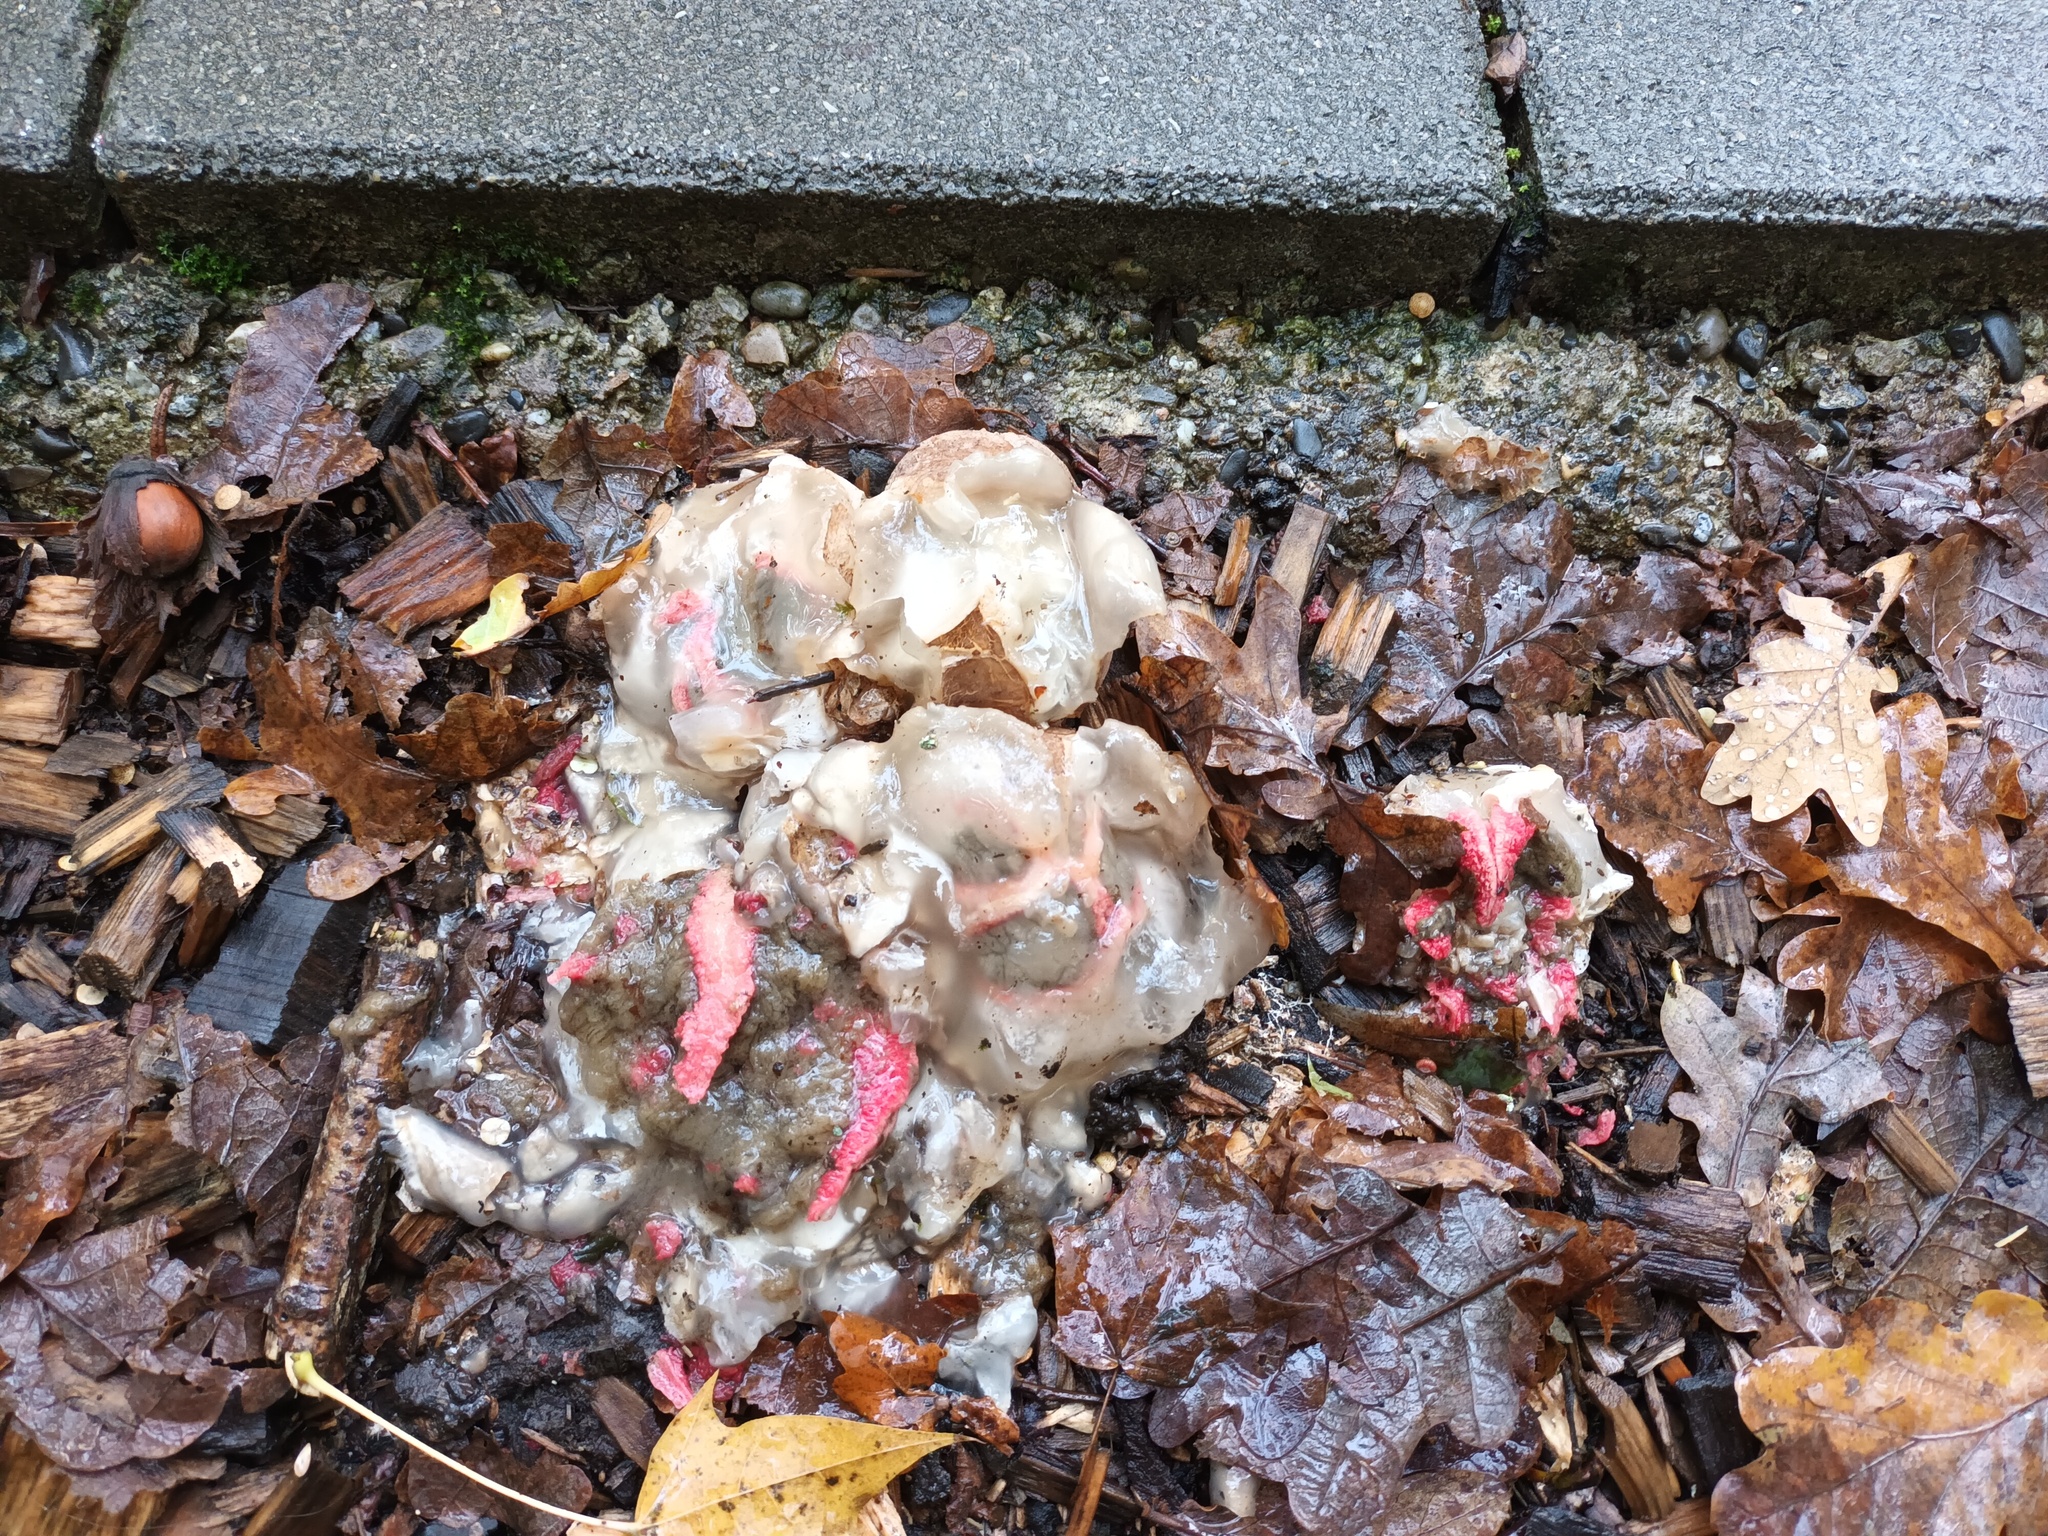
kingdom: Fungi
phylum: Basidiomycota
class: Agaricomycetes
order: Phallales
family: Phallaceae
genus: Clathrus
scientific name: Clathrus archeri
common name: Devil's fingers
